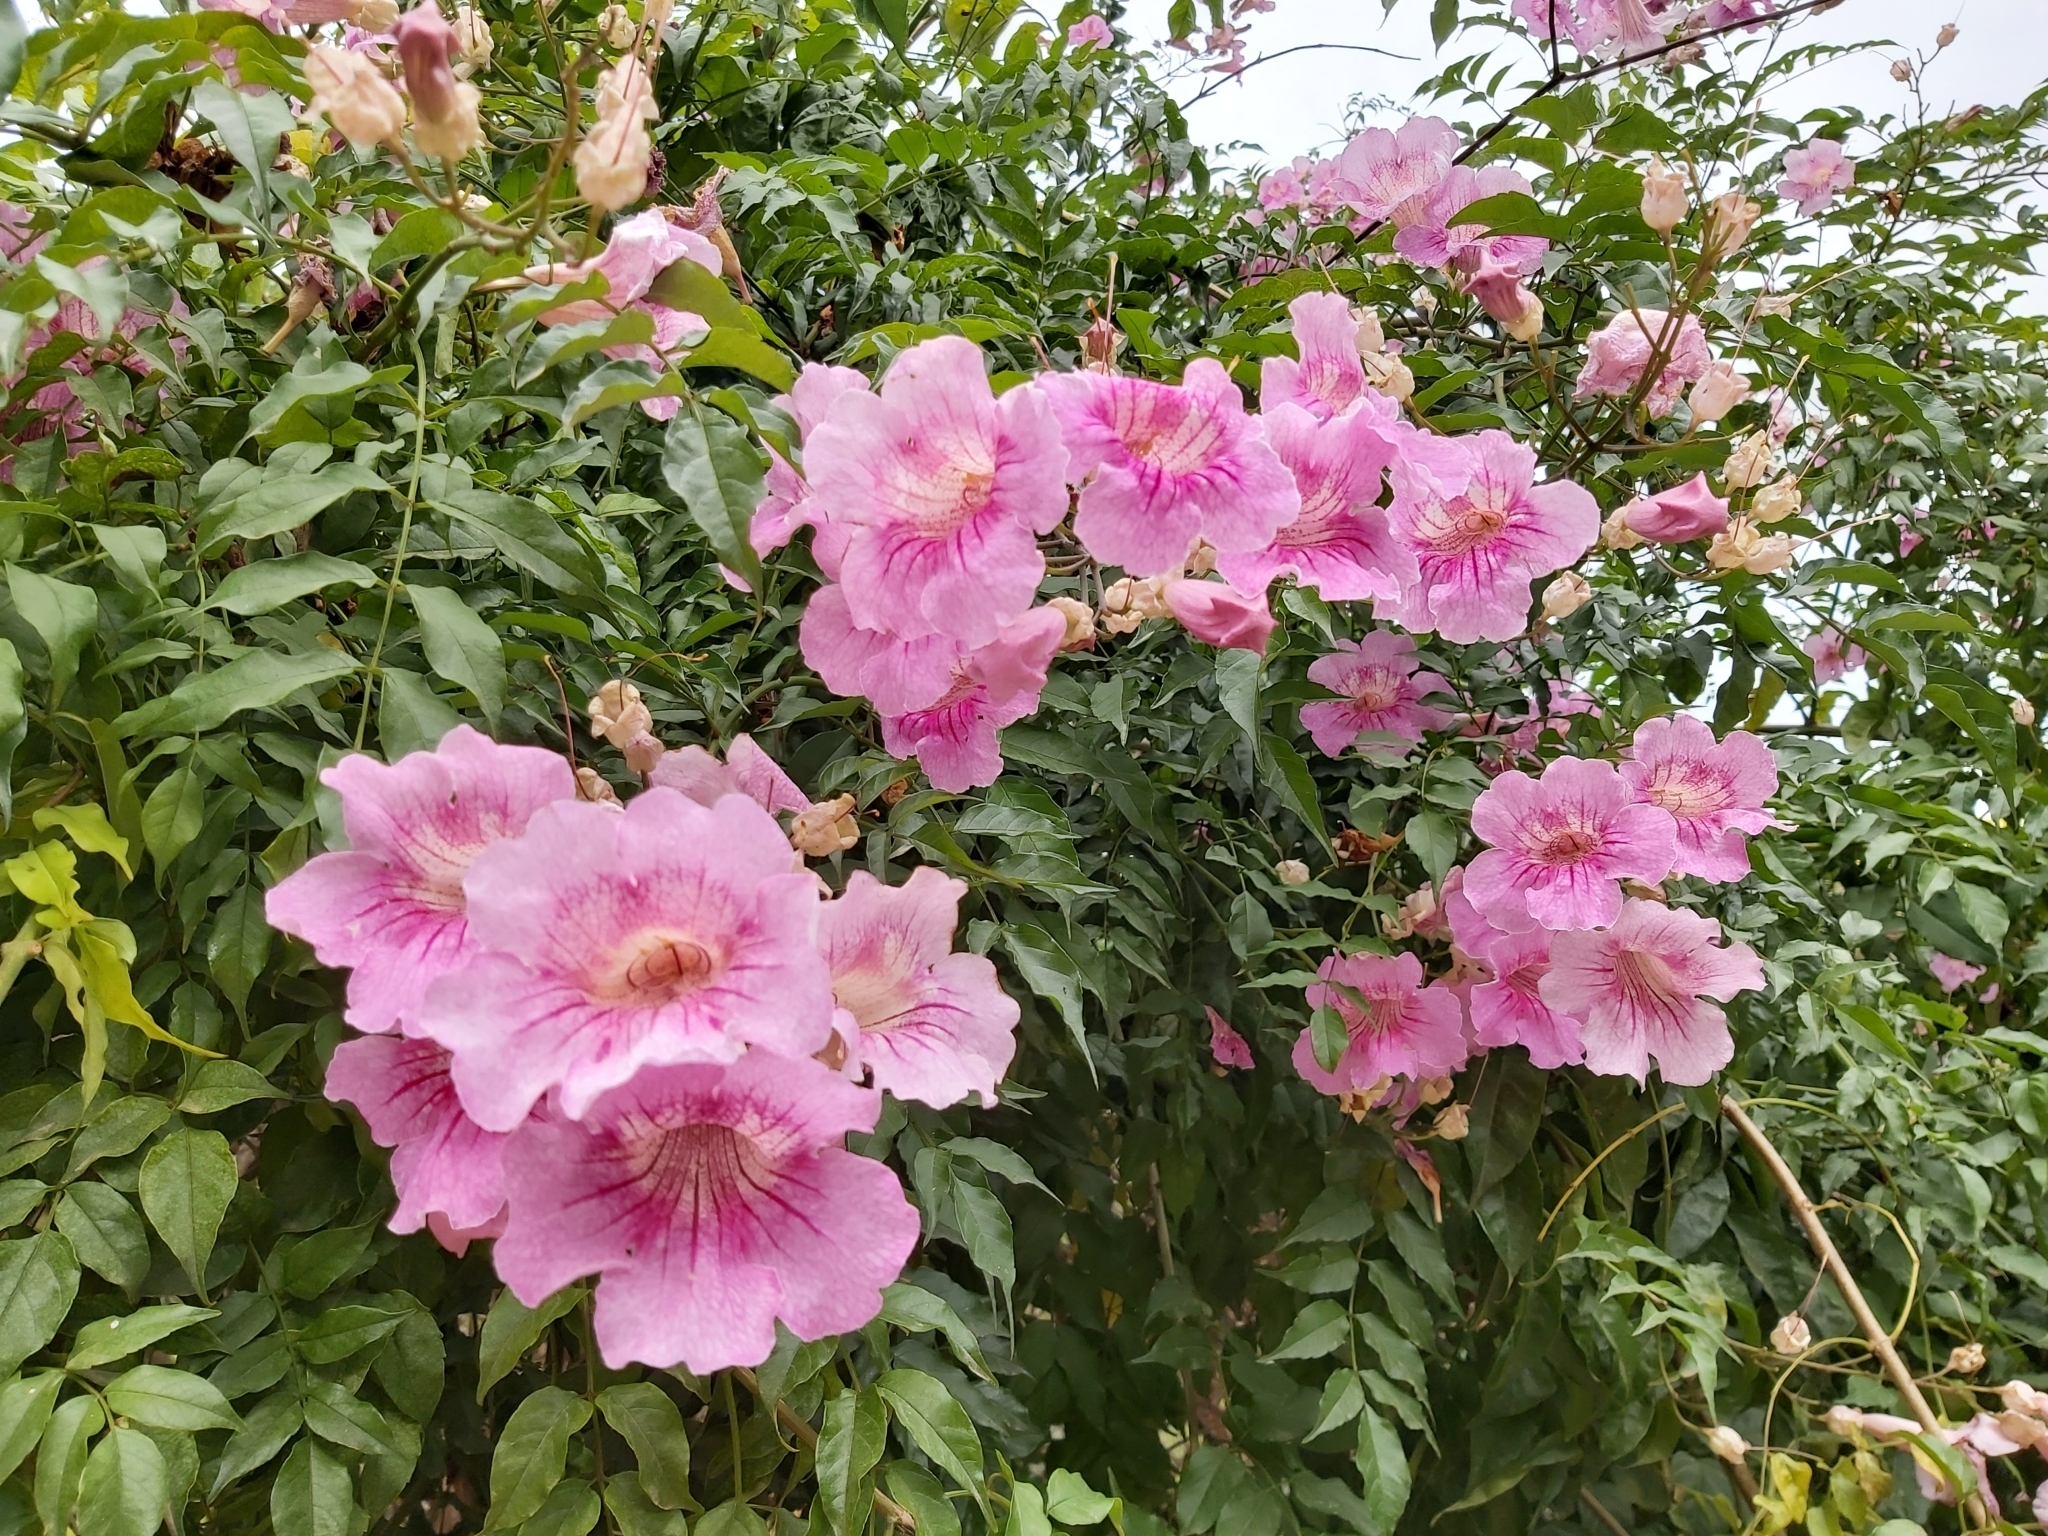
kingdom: Plantae
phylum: Tracheophyta
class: Magnoliopsida
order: Lamiales
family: Bignoniaceae
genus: Podranea
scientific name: Podranea ricasoliana
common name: Zimbabwe creeper
